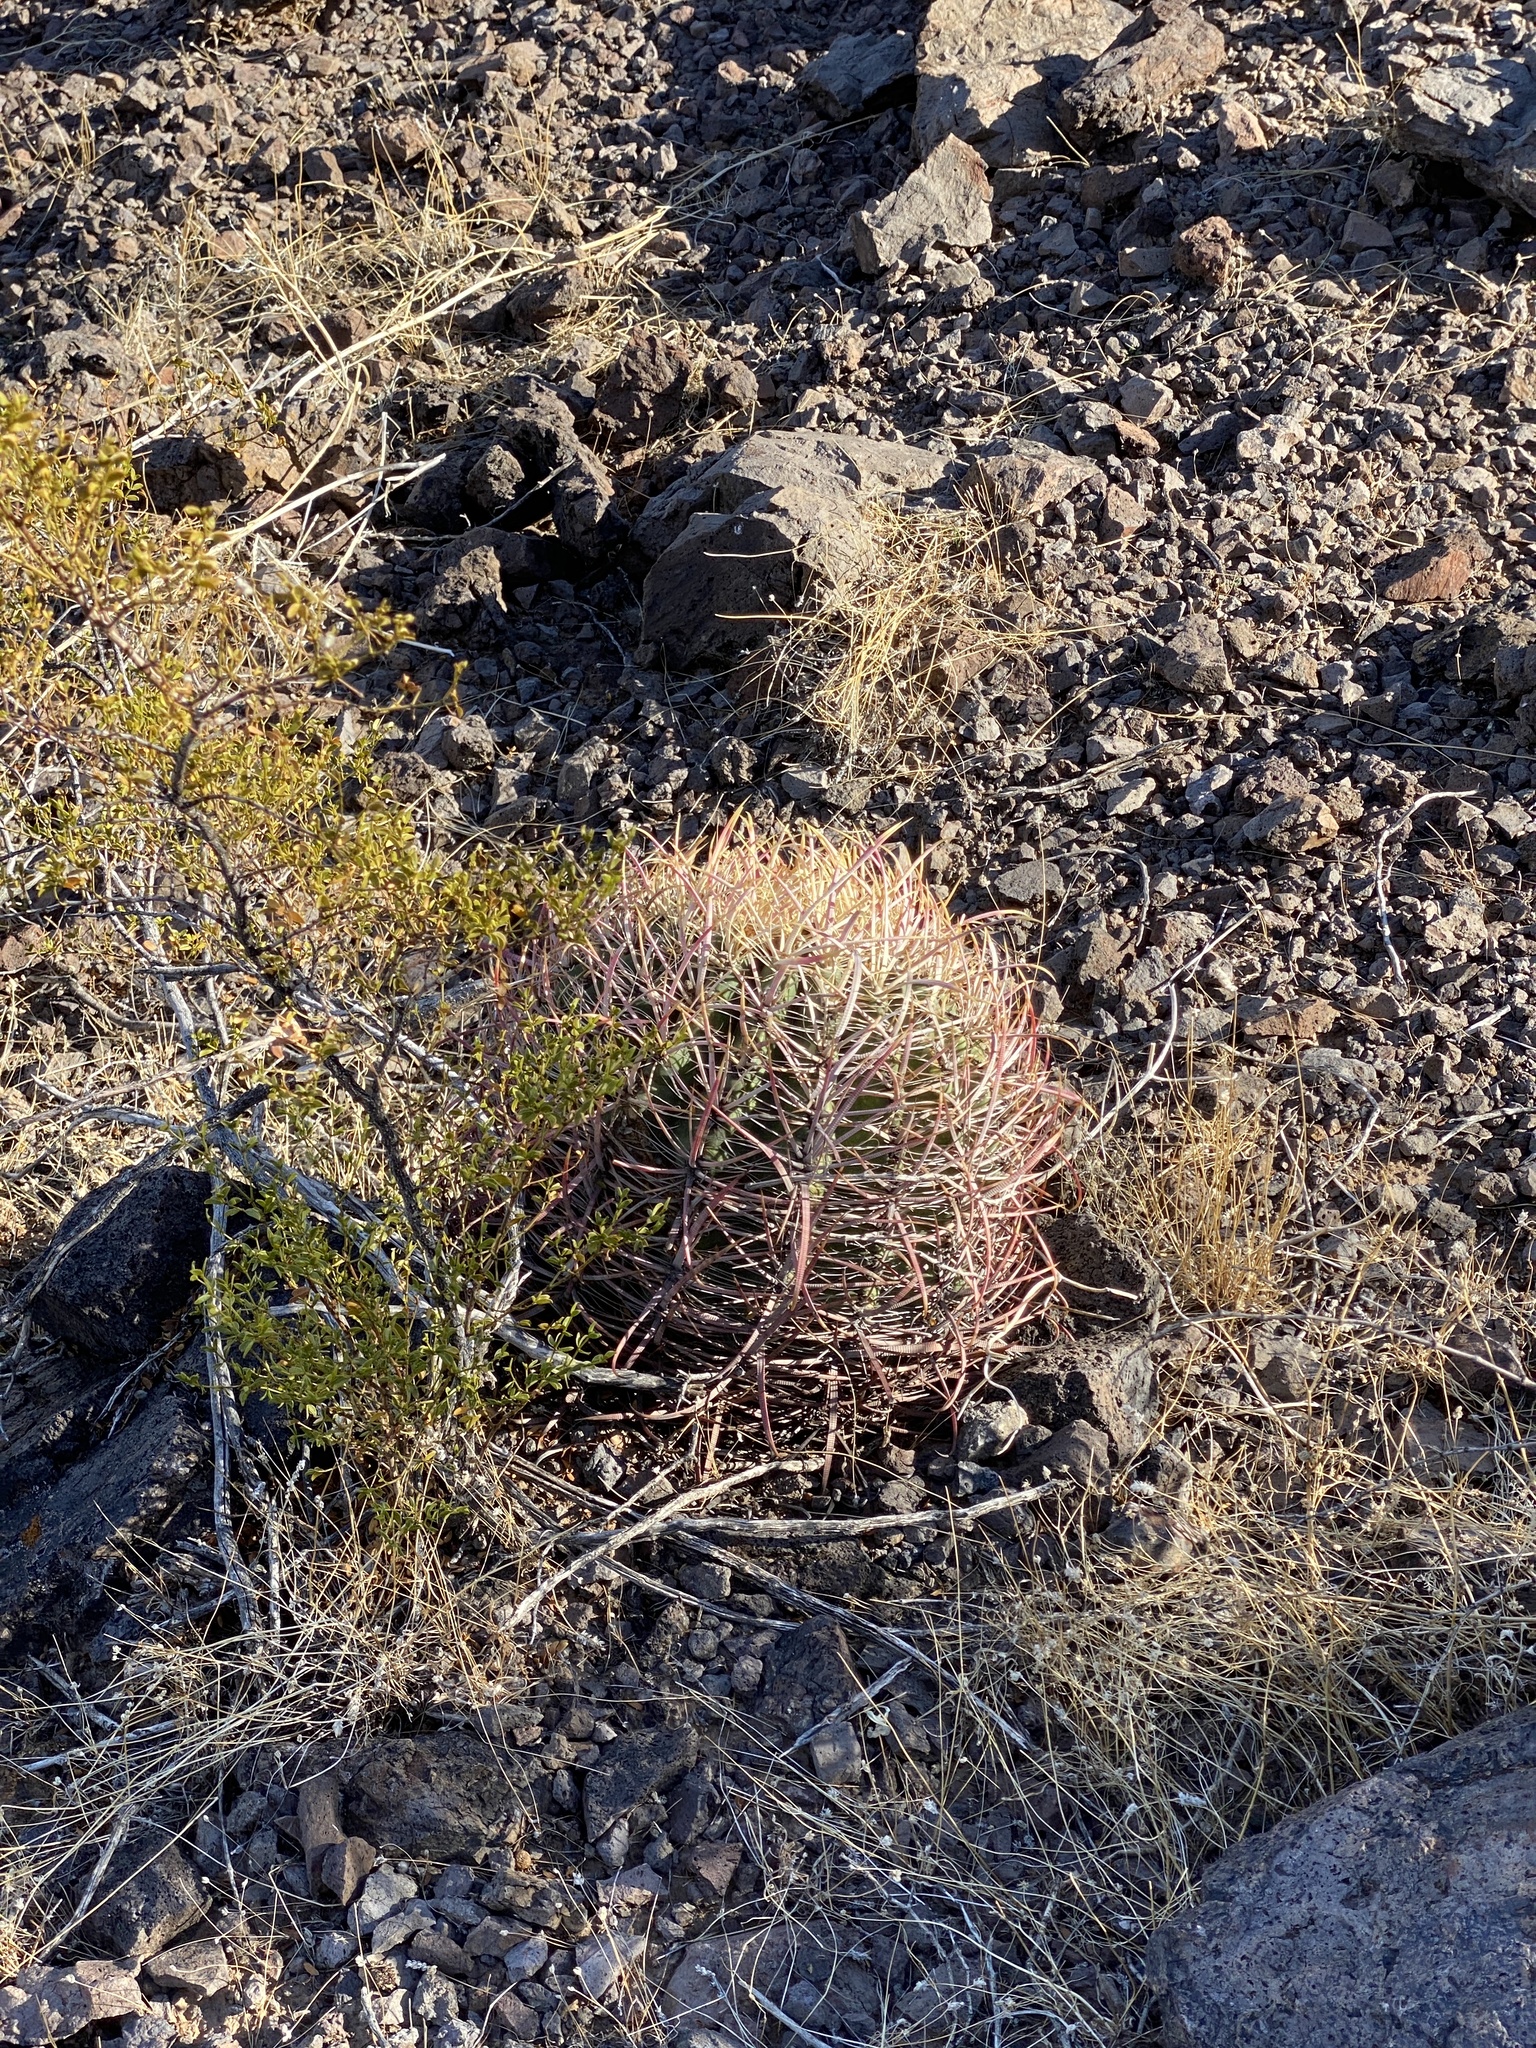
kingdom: Plantae
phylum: Tracheophyta
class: Magnoliopsida
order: Caryophyllales
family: Cactaceae
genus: Ferocactus
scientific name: Ferocactus cylindraceus
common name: California barrel cactus
